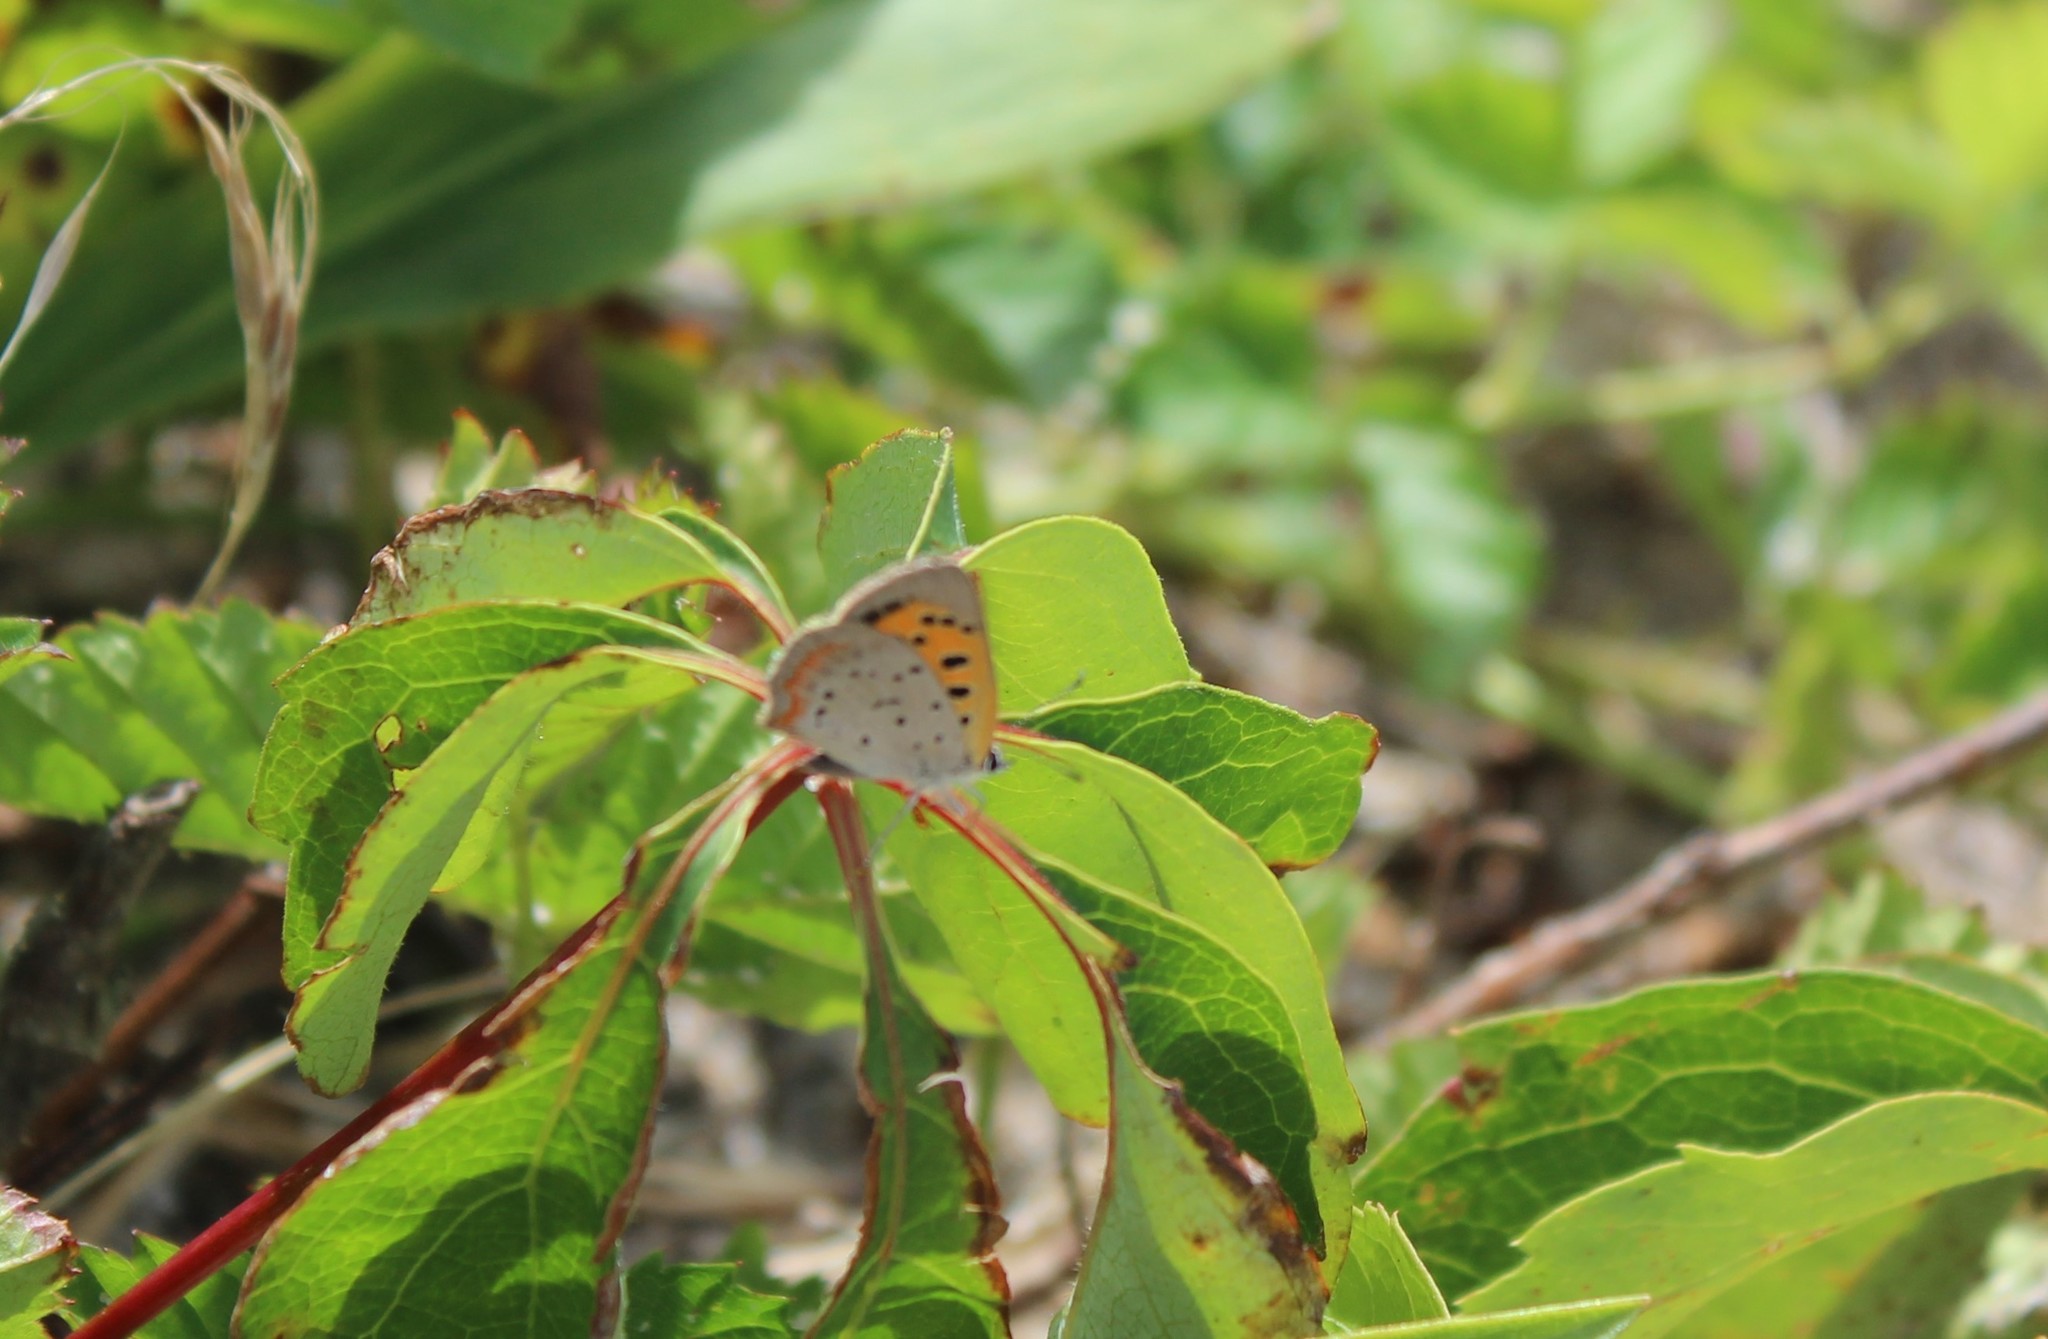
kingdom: Animalia
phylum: Arthropoda
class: Insecta
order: Lepidoptera
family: Lycaenidae
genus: Lycaena
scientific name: Lycaena hypophlaeas
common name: American copper
